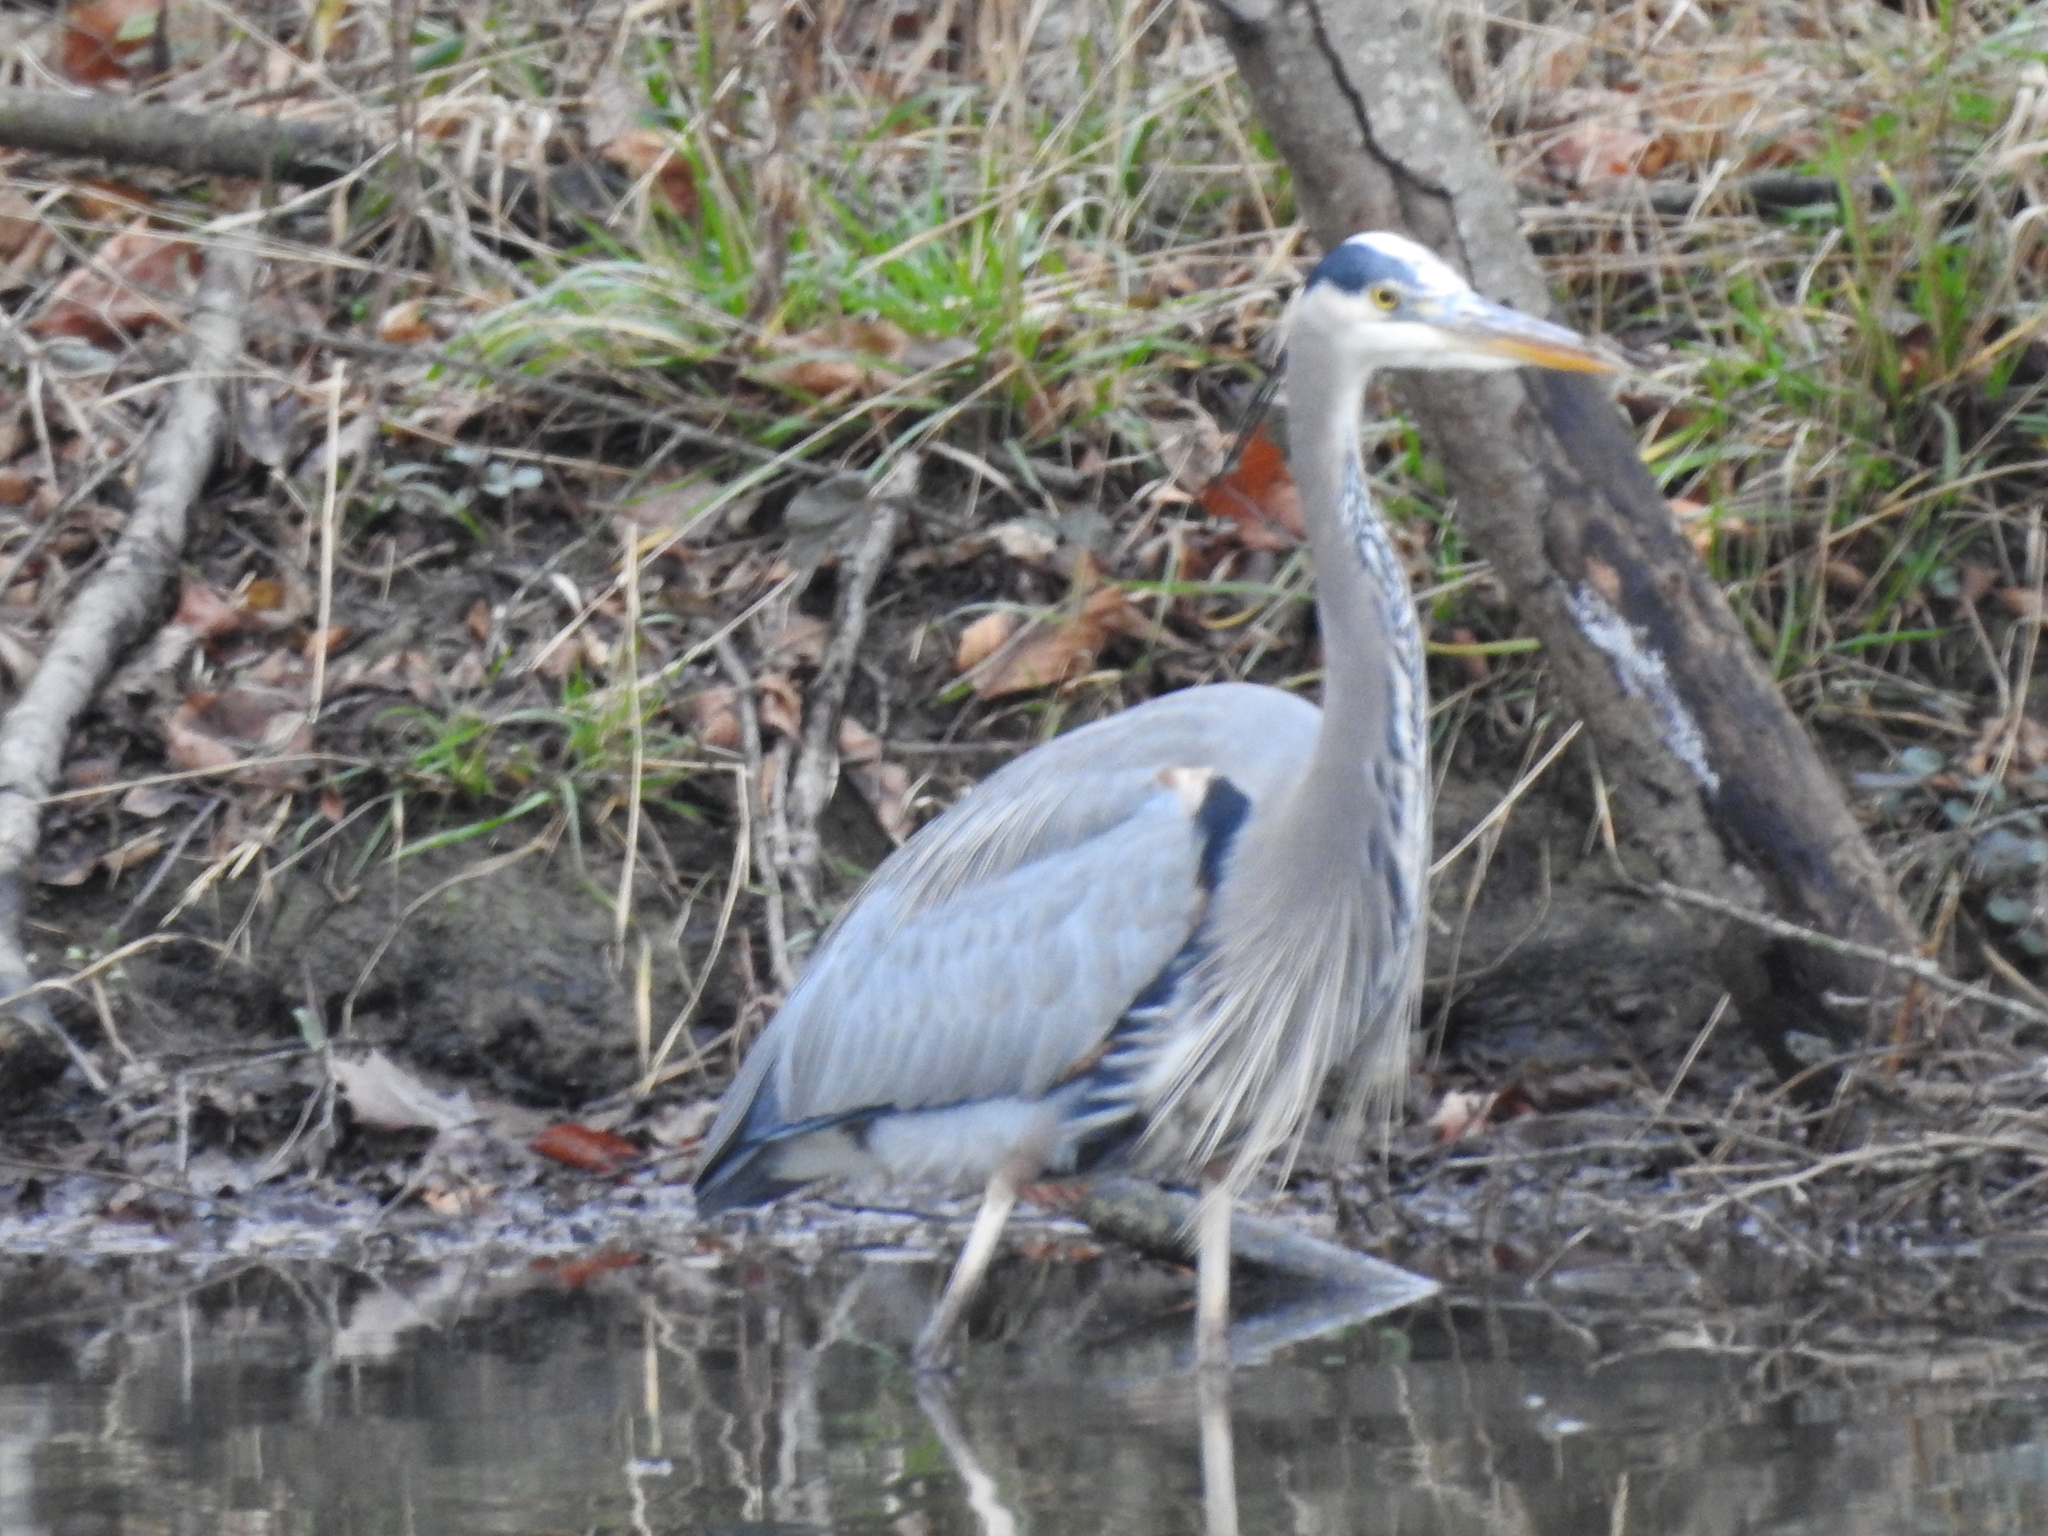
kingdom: Animalia
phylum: Chordata
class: Aves
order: Pelecaniformes
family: Ardeidae
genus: Ardea
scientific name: Ardea herodias
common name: Great blue heron
